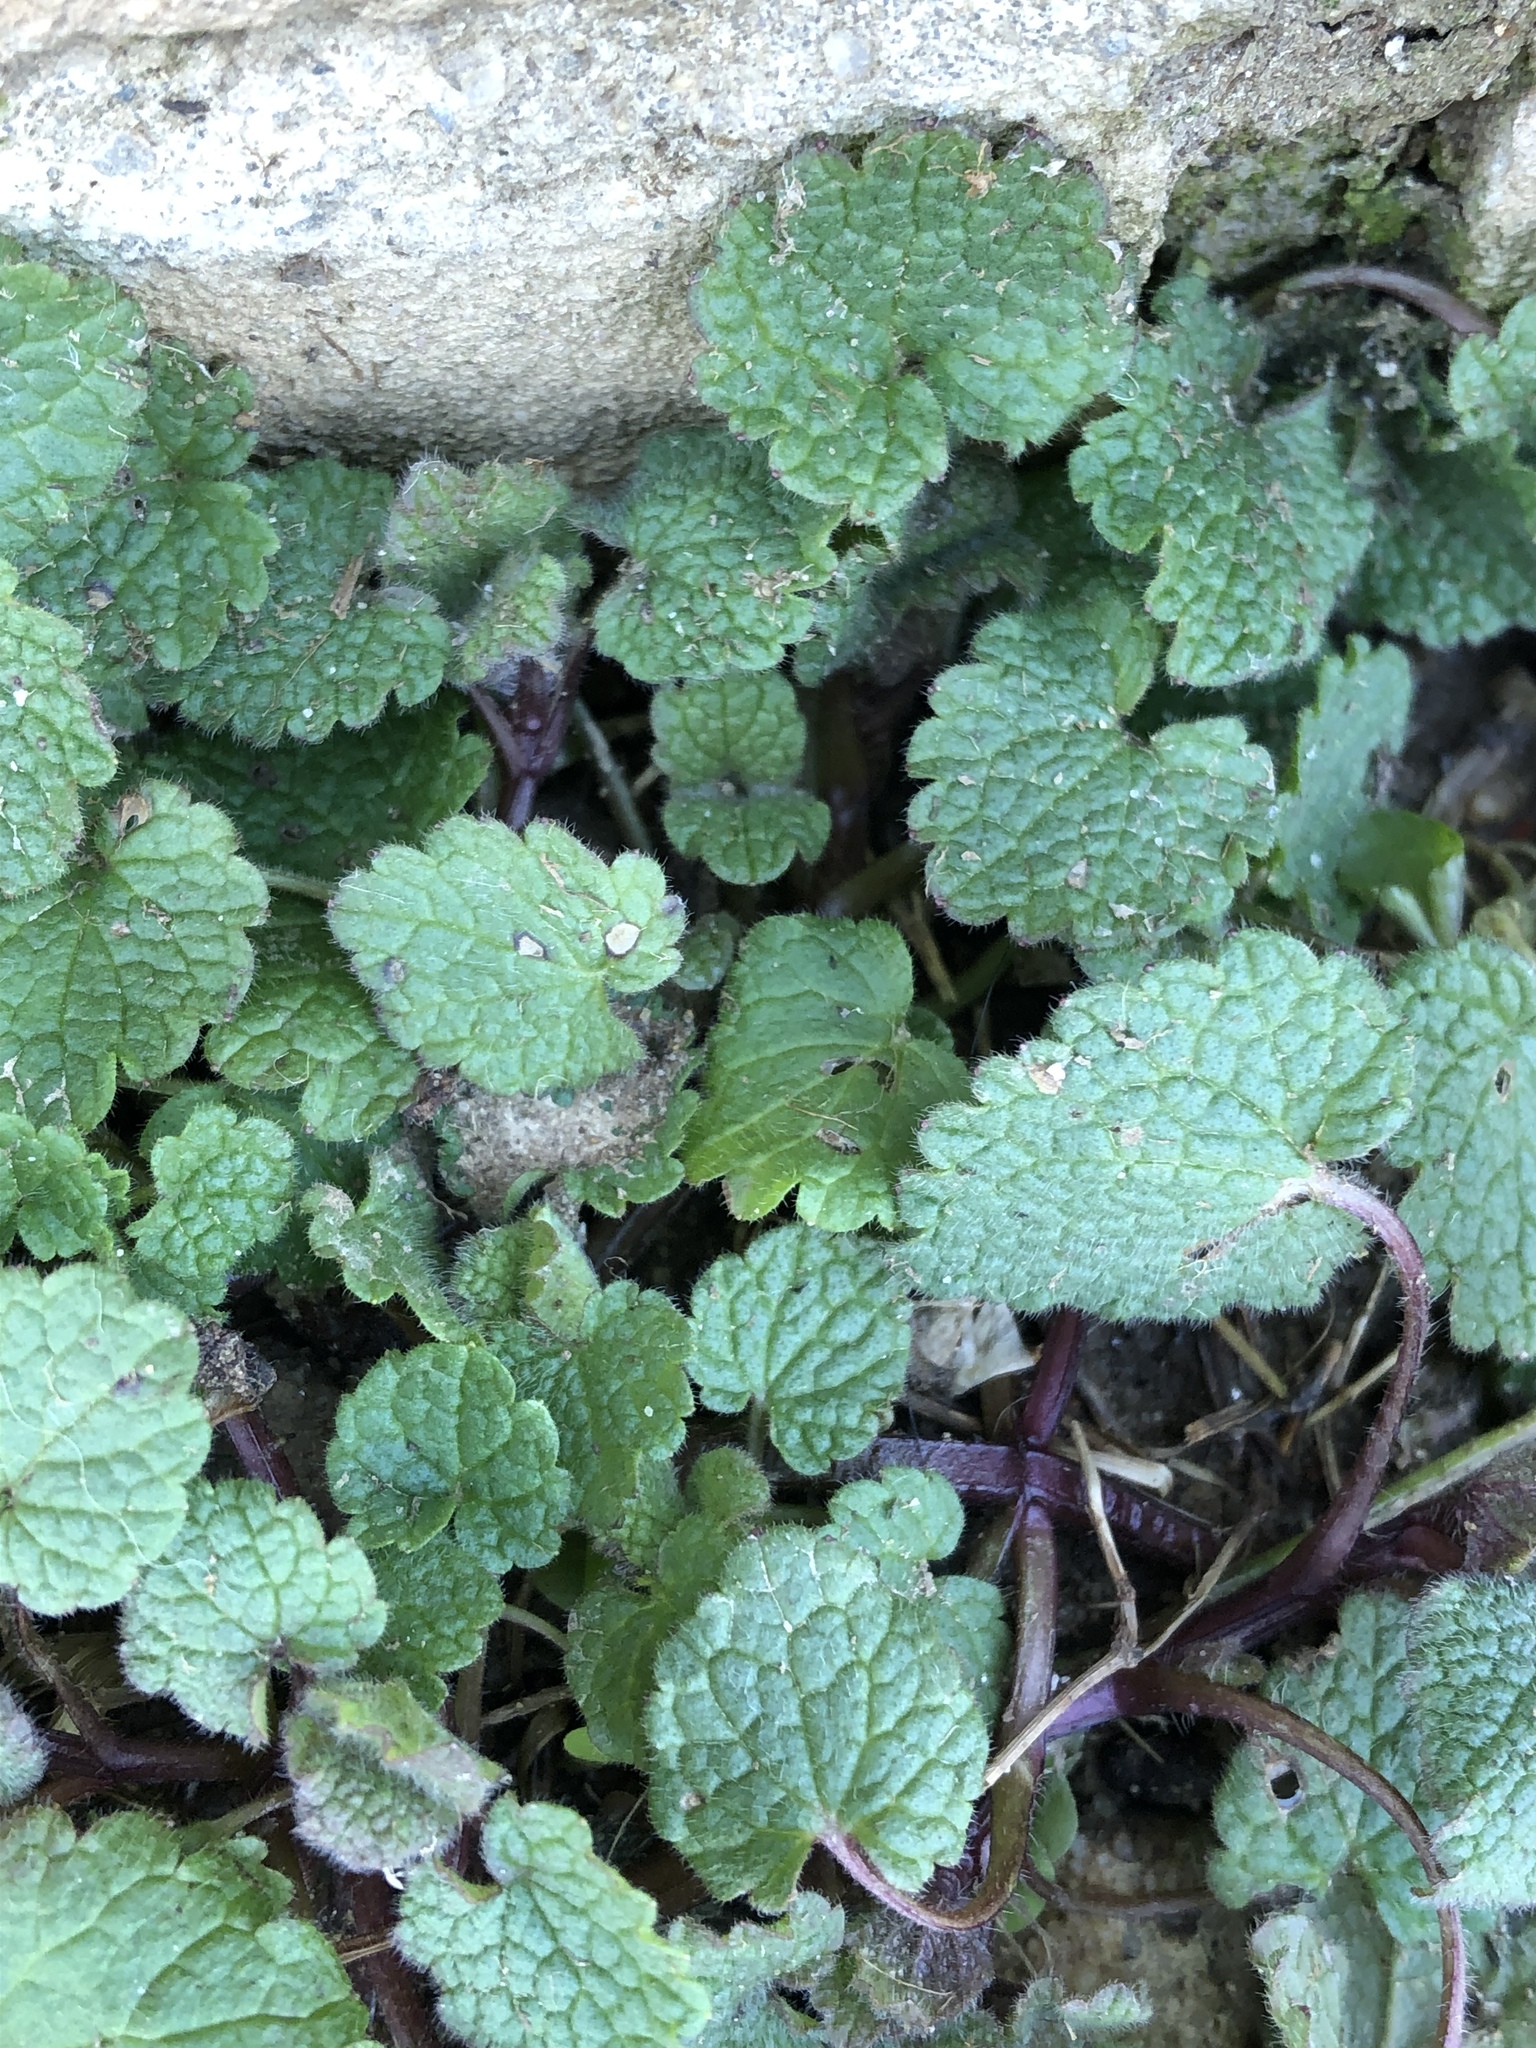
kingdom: Plantae
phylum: Tracheophyta
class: Magnoliopsida
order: Lamiales
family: Lamiaceae
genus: Lamium
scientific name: Lamium purpureum
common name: Red dead-nettle
